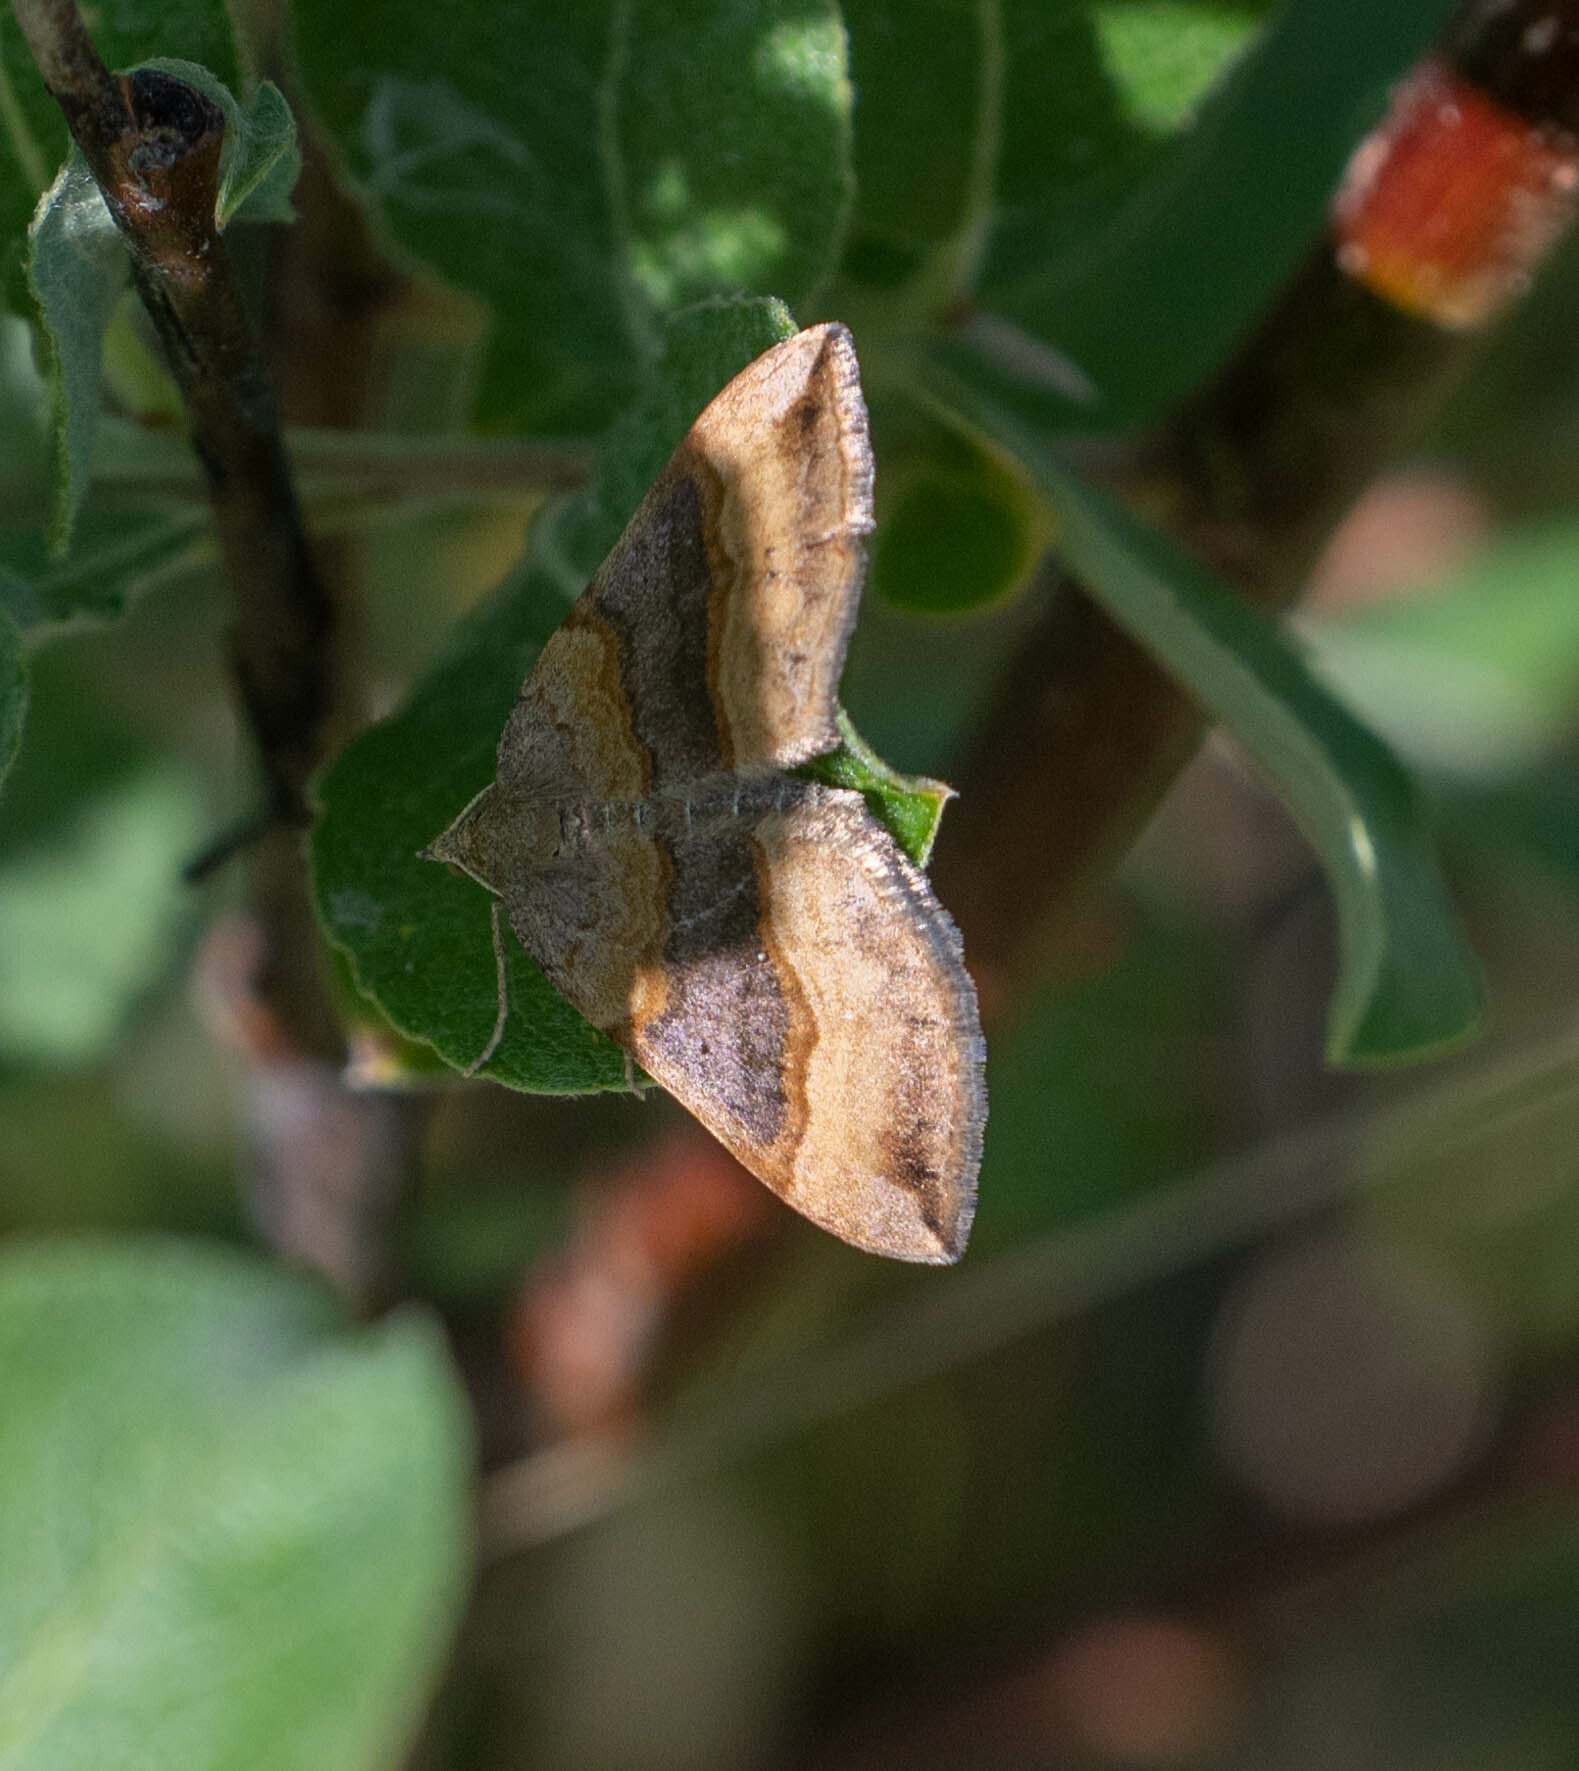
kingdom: Animalia
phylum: Arthropoda
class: Insecta
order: Lepidoptera
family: Geometridae
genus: Scotopteryx
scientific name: Scotopteryx chenopodiata
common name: Shaded broad-bar
